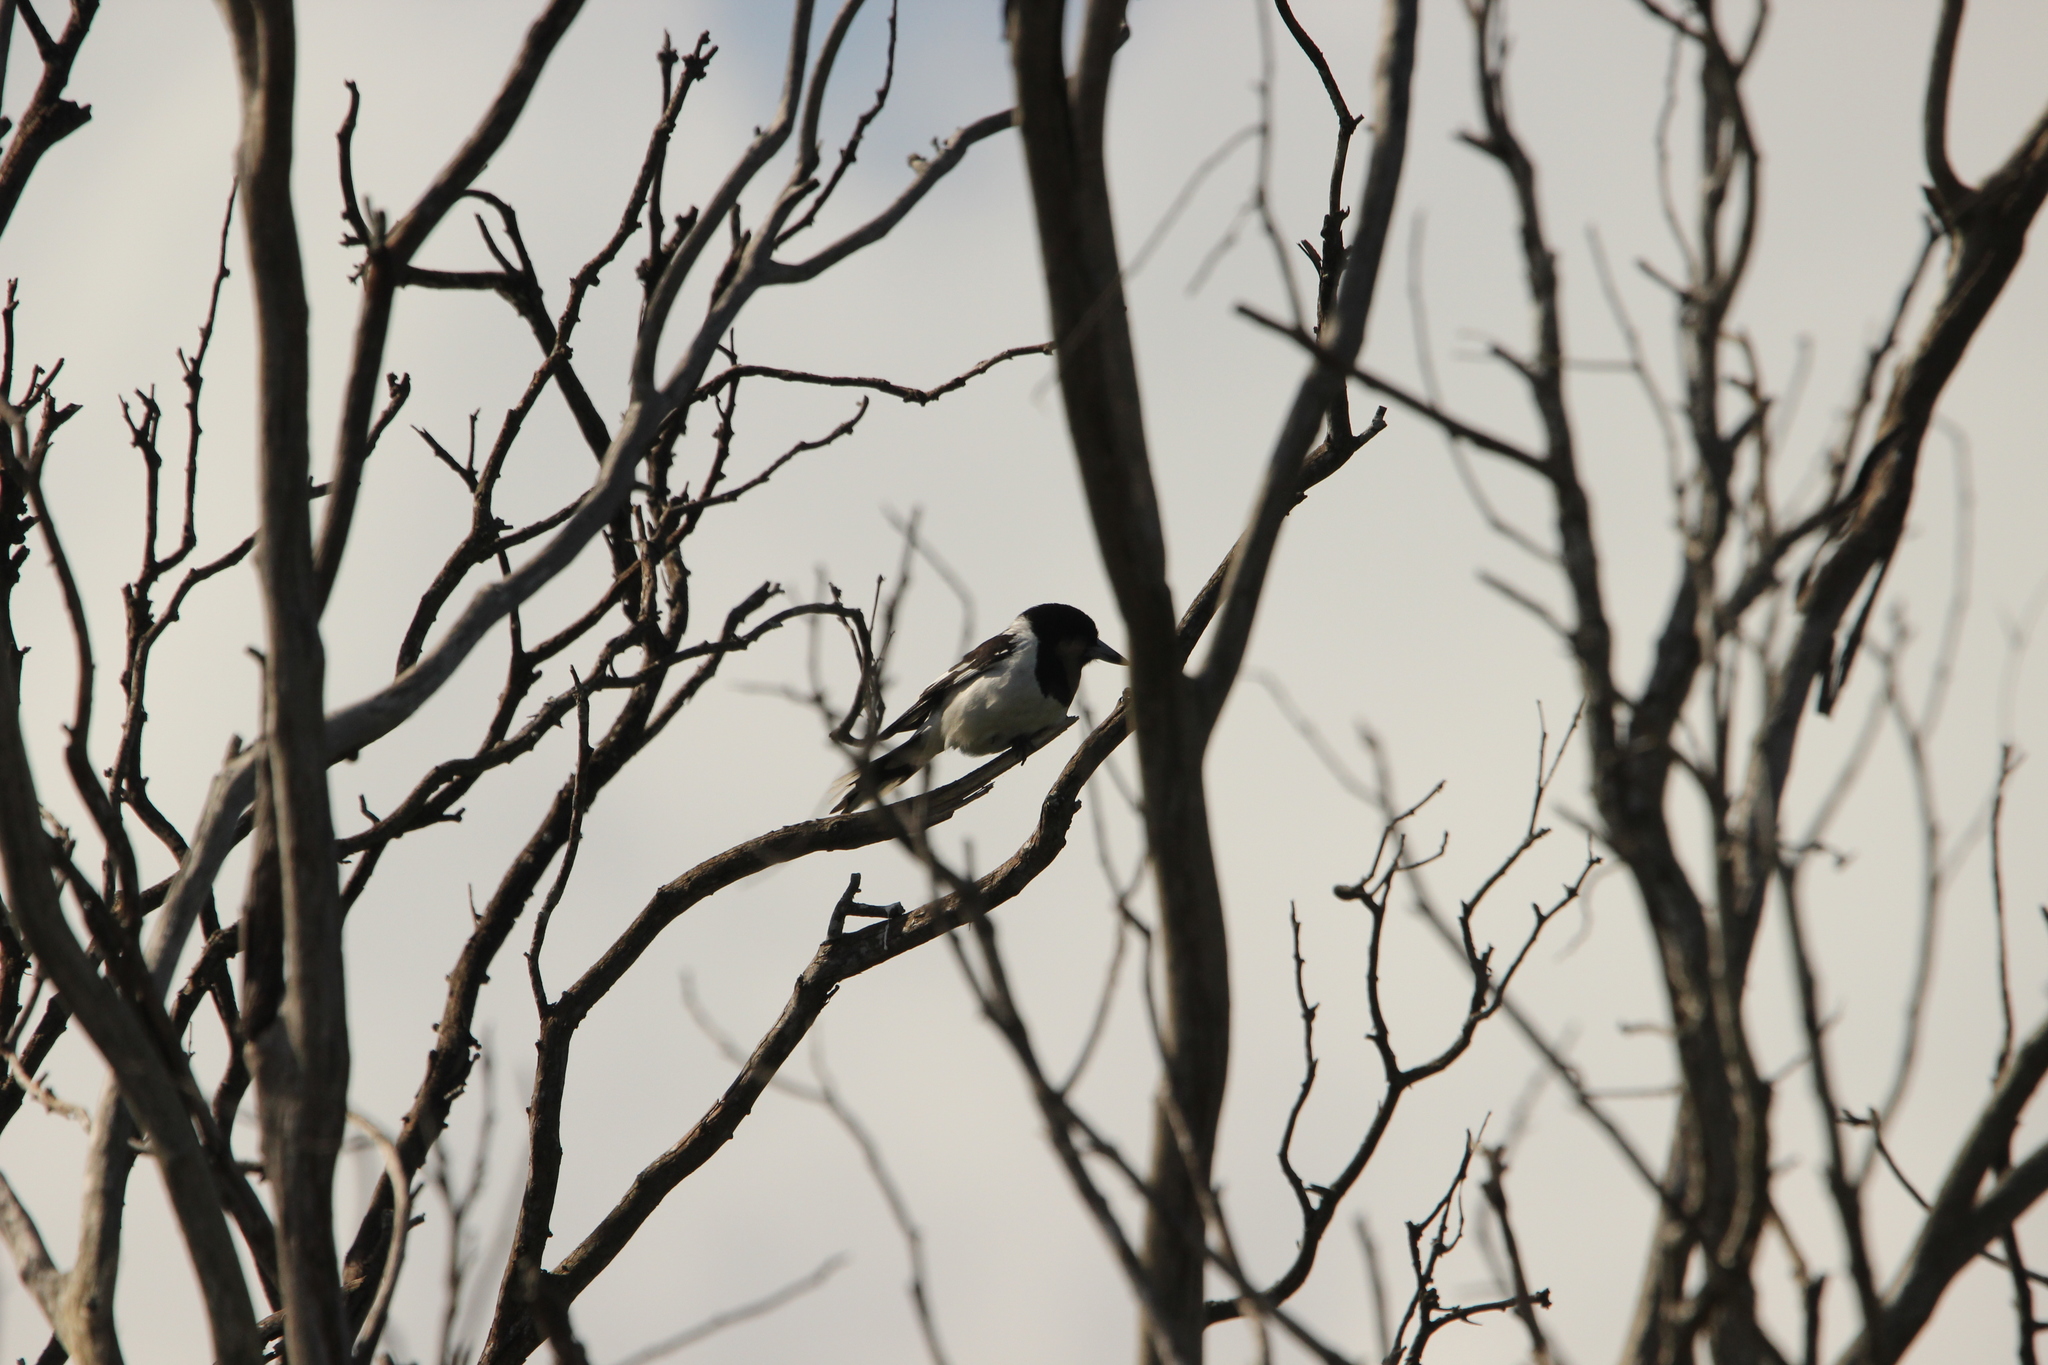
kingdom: Animalia
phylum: Chordata
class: Aves
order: Passeriformes
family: Cracticidae
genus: Cracticus
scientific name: Cracticus nigrogularis
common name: Pied butcherbird
